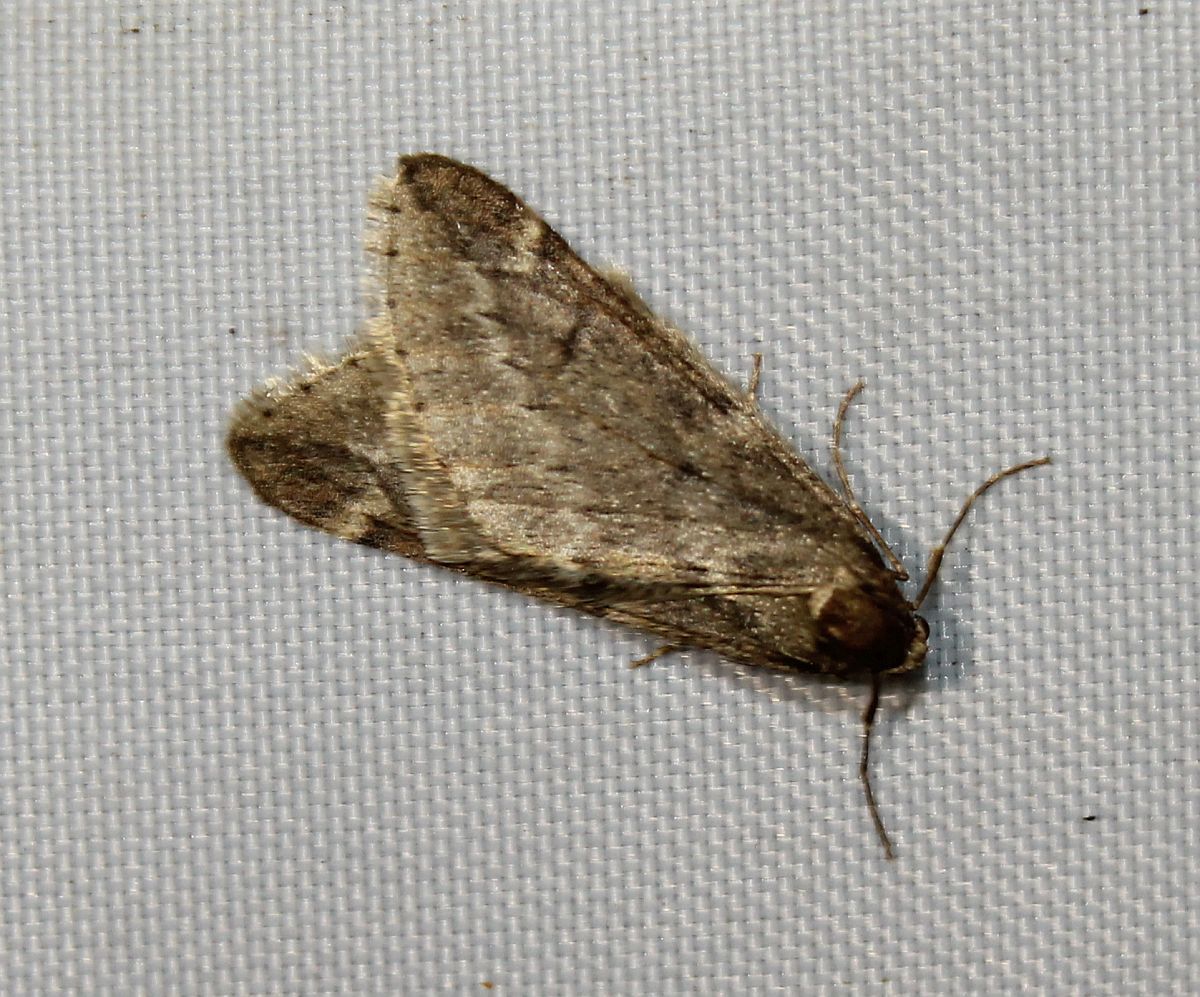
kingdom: Animalia
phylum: Arthropoda
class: Insecta
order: Lepidoptera
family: Geometridae
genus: Alsophila
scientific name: Alsophila aescularia
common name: March moth
